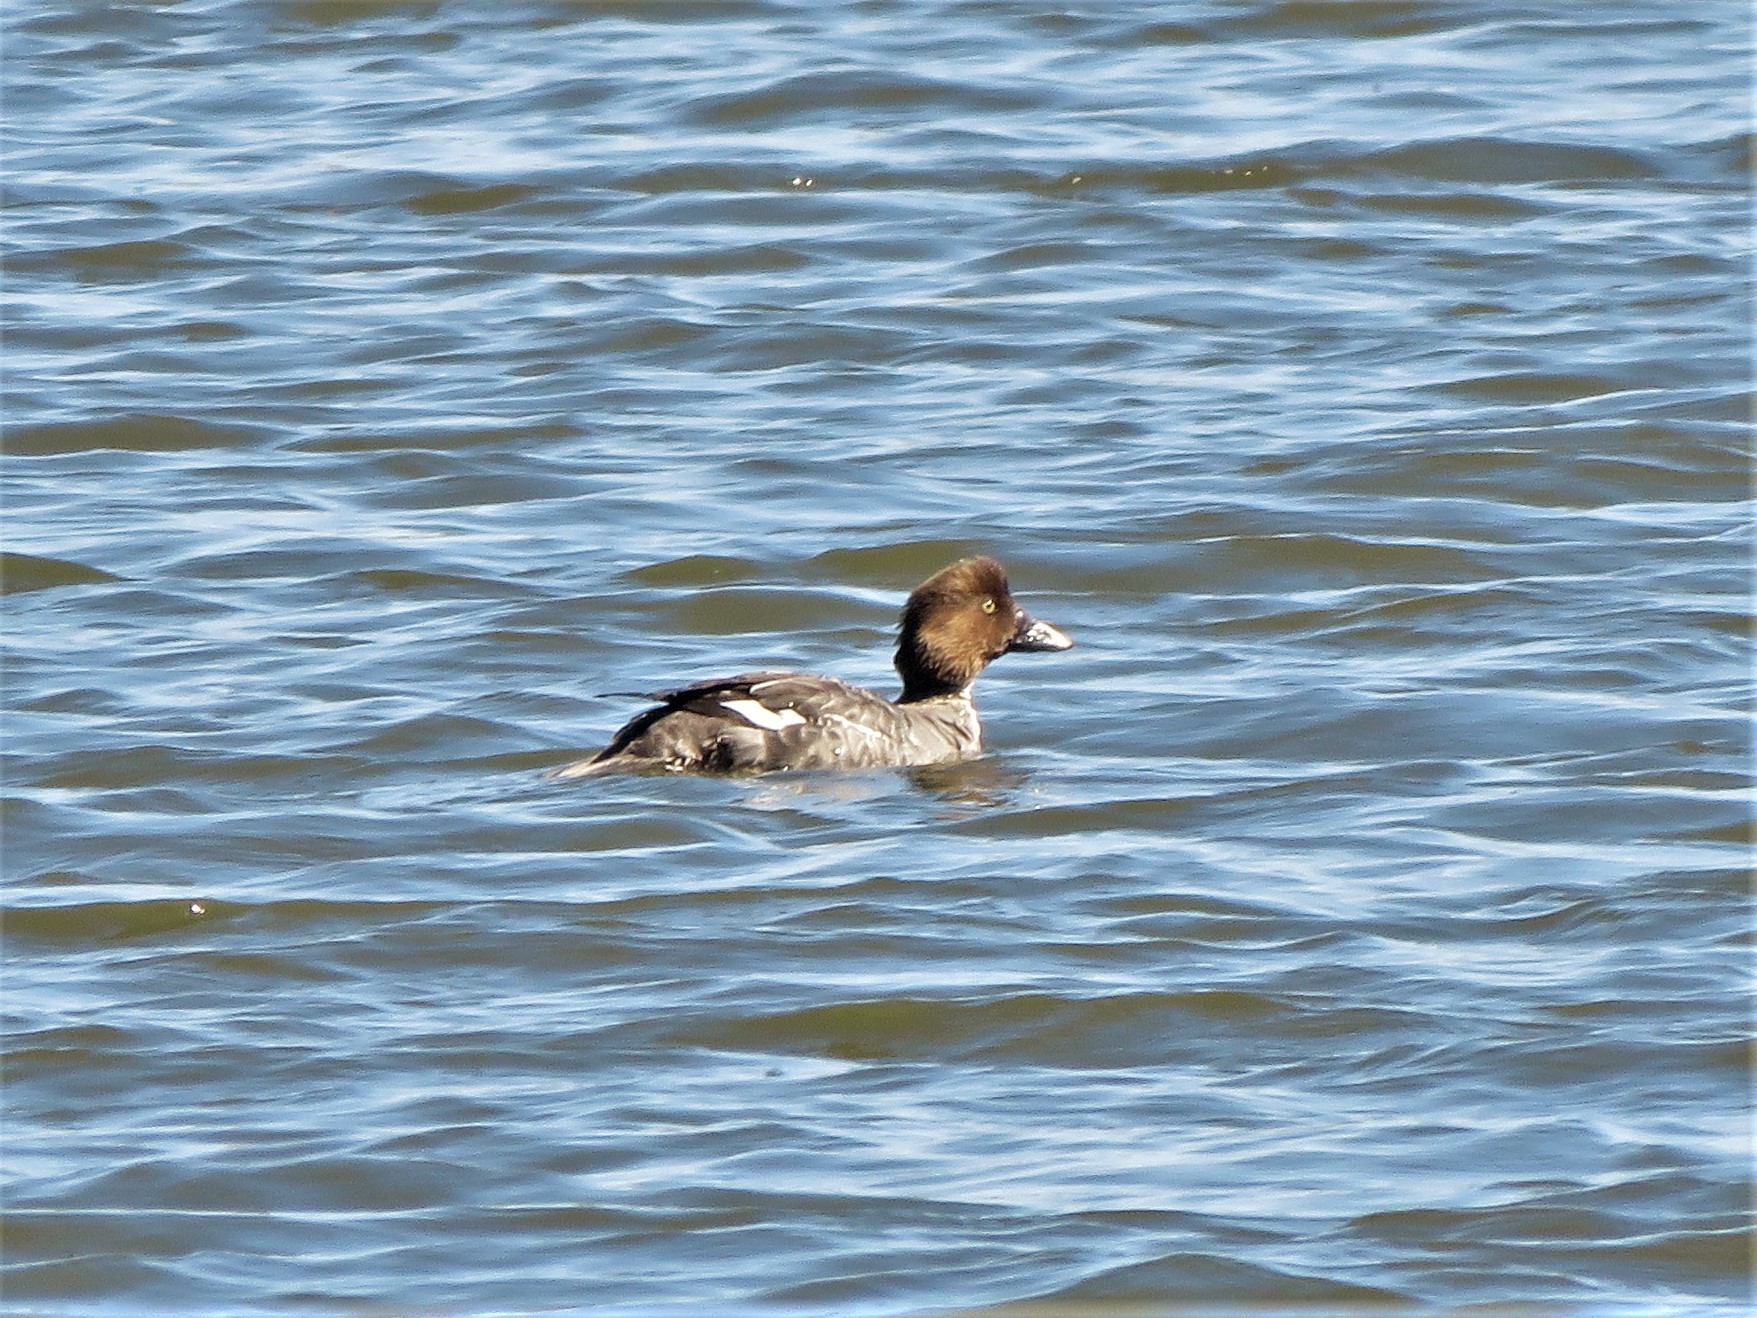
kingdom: Animalia
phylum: Chordata
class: Aves
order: Anseriformes
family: Anatidae
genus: Bucephala
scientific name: Bucephala clangula
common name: Common goldeneye
